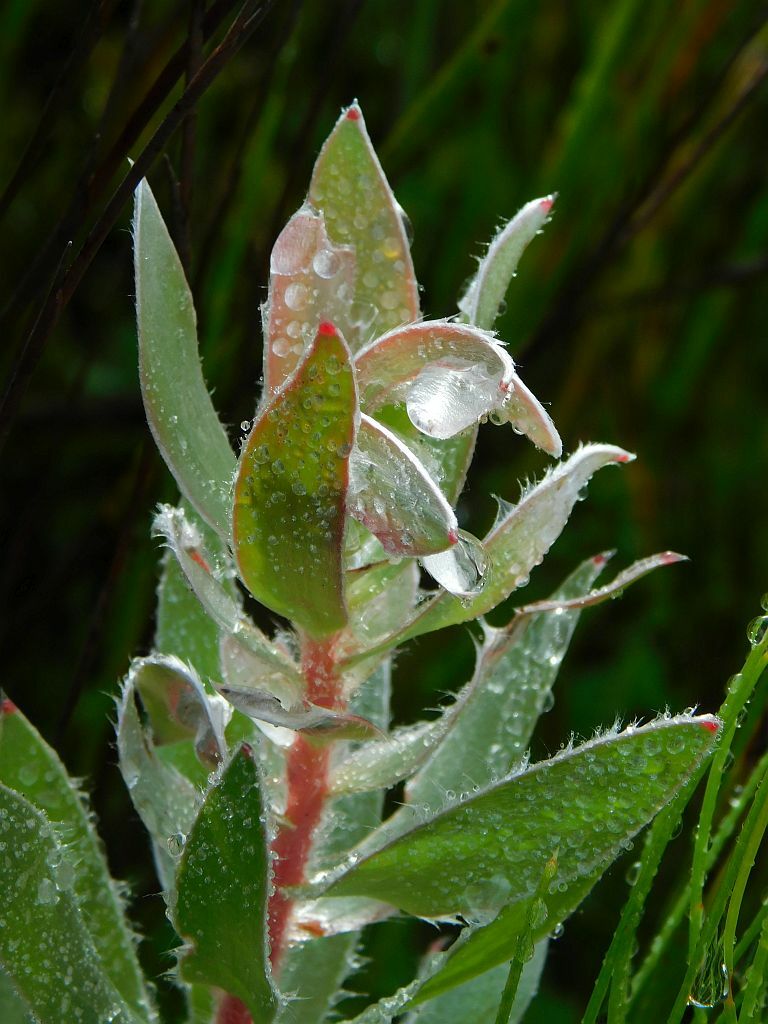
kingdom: Plantae
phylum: Tracheophyta
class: Magnoliopsida
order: Proteales
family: Proteaceae
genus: Mimetes
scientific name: Mimetes argenteus
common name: Silver pagoda
